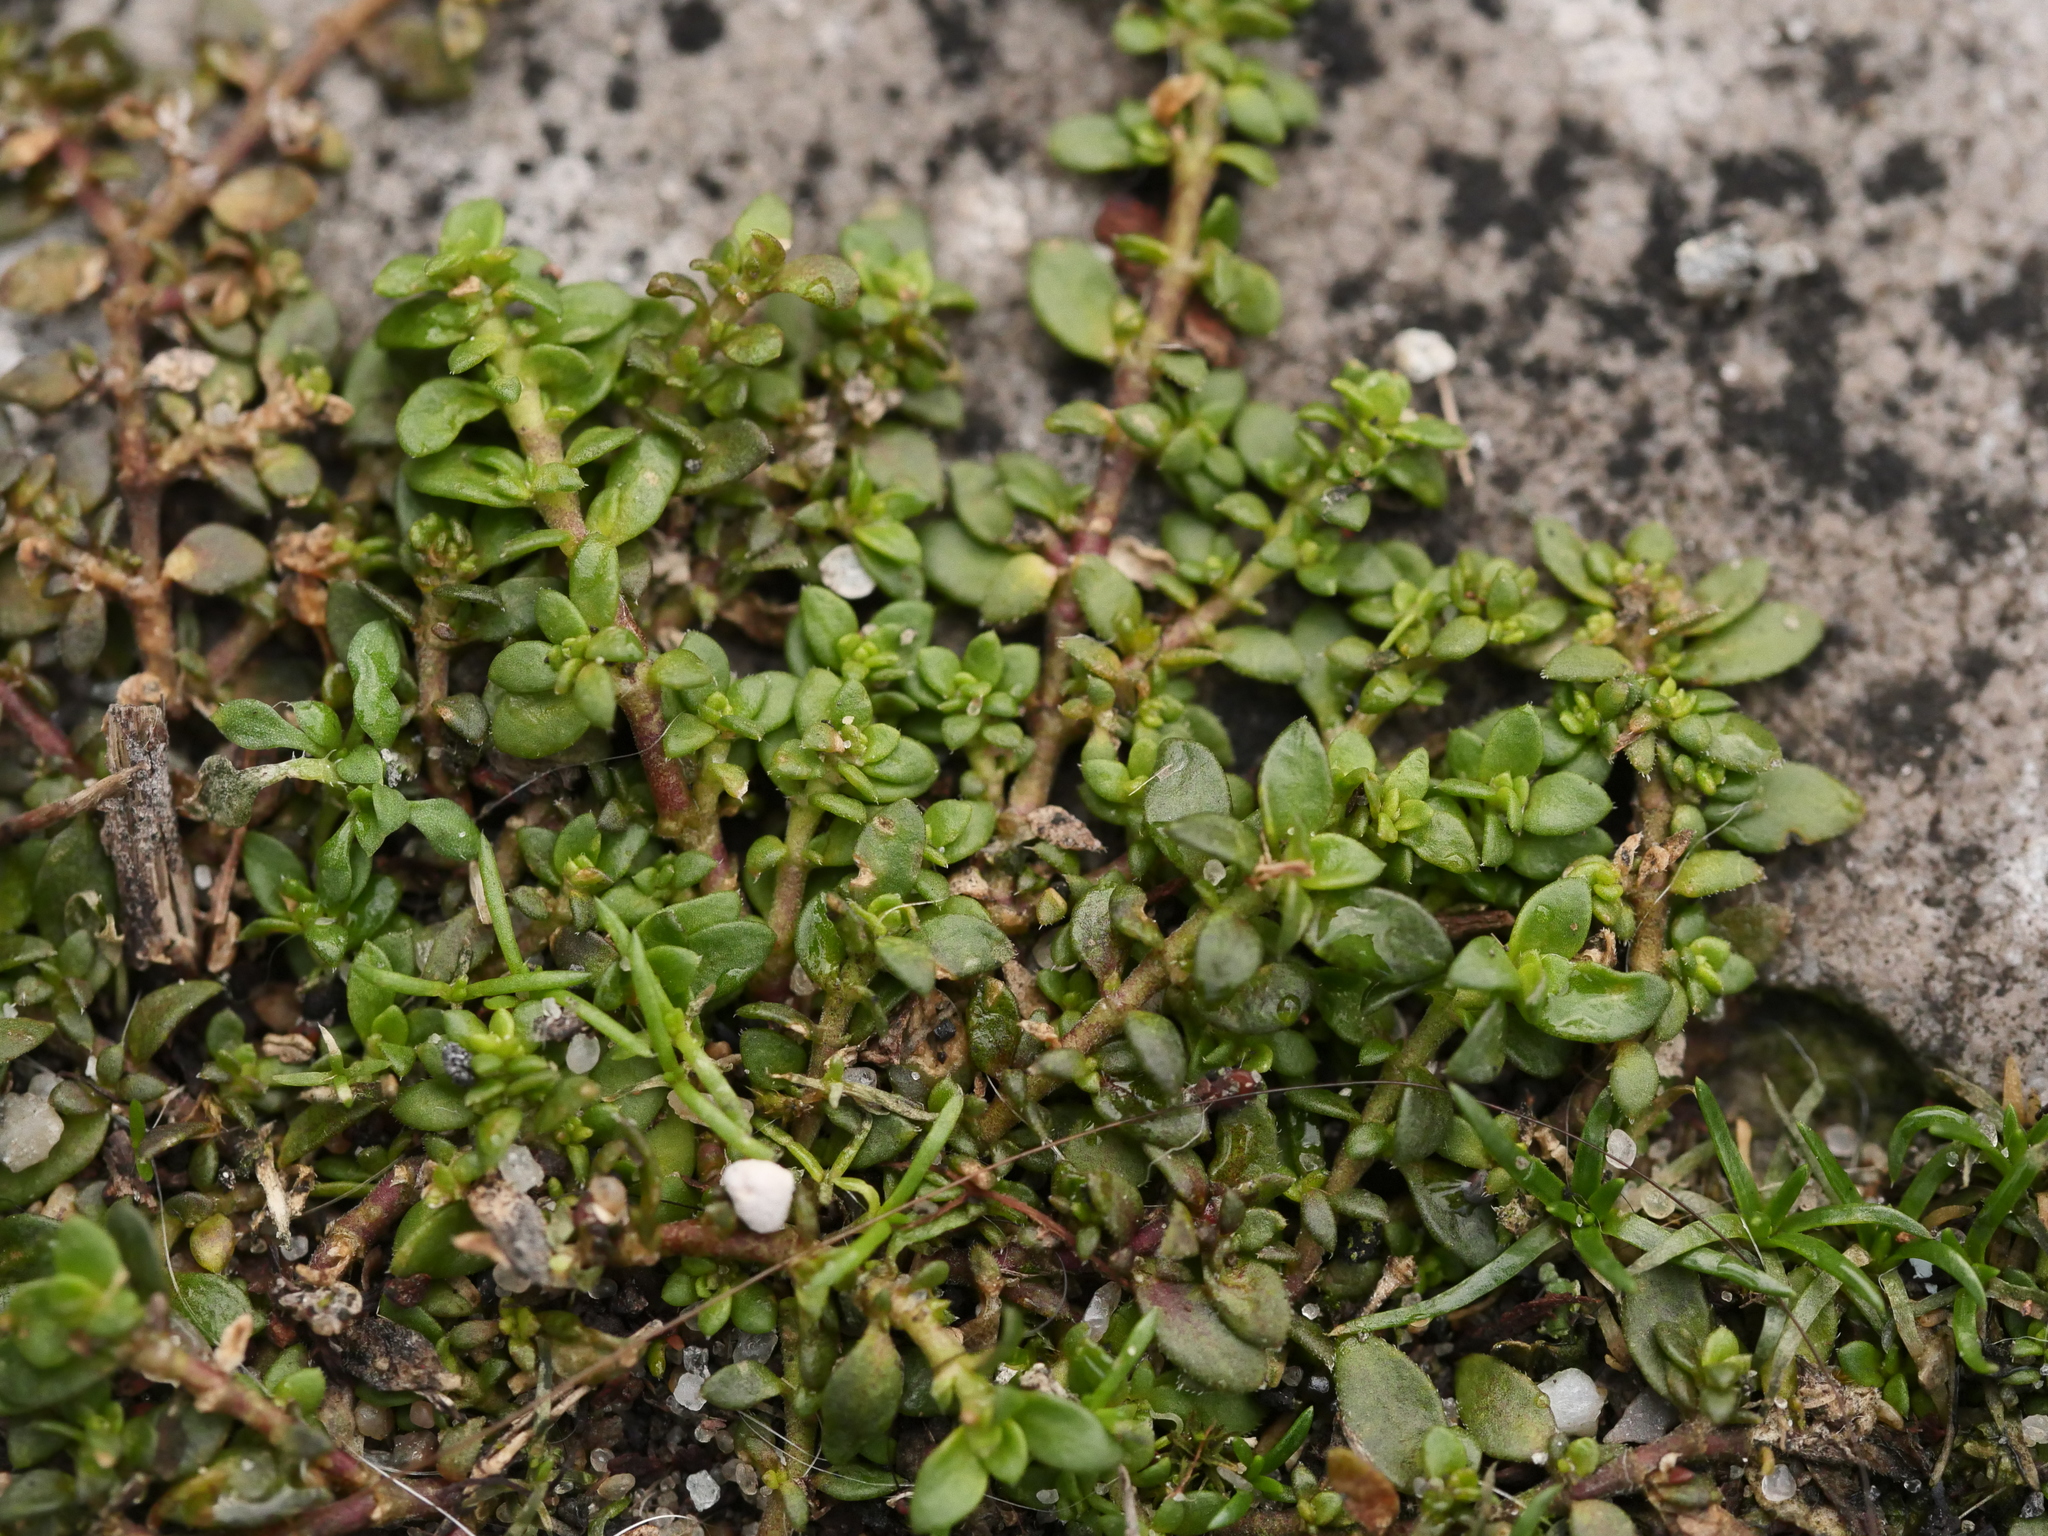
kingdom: Plantae
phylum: Tracheophyta
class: Magnoliopsida
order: Caryophyllales
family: Caryophyllaceae
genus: Herniaria
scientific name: Herniaria glabra
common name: Smooth rupturewort
